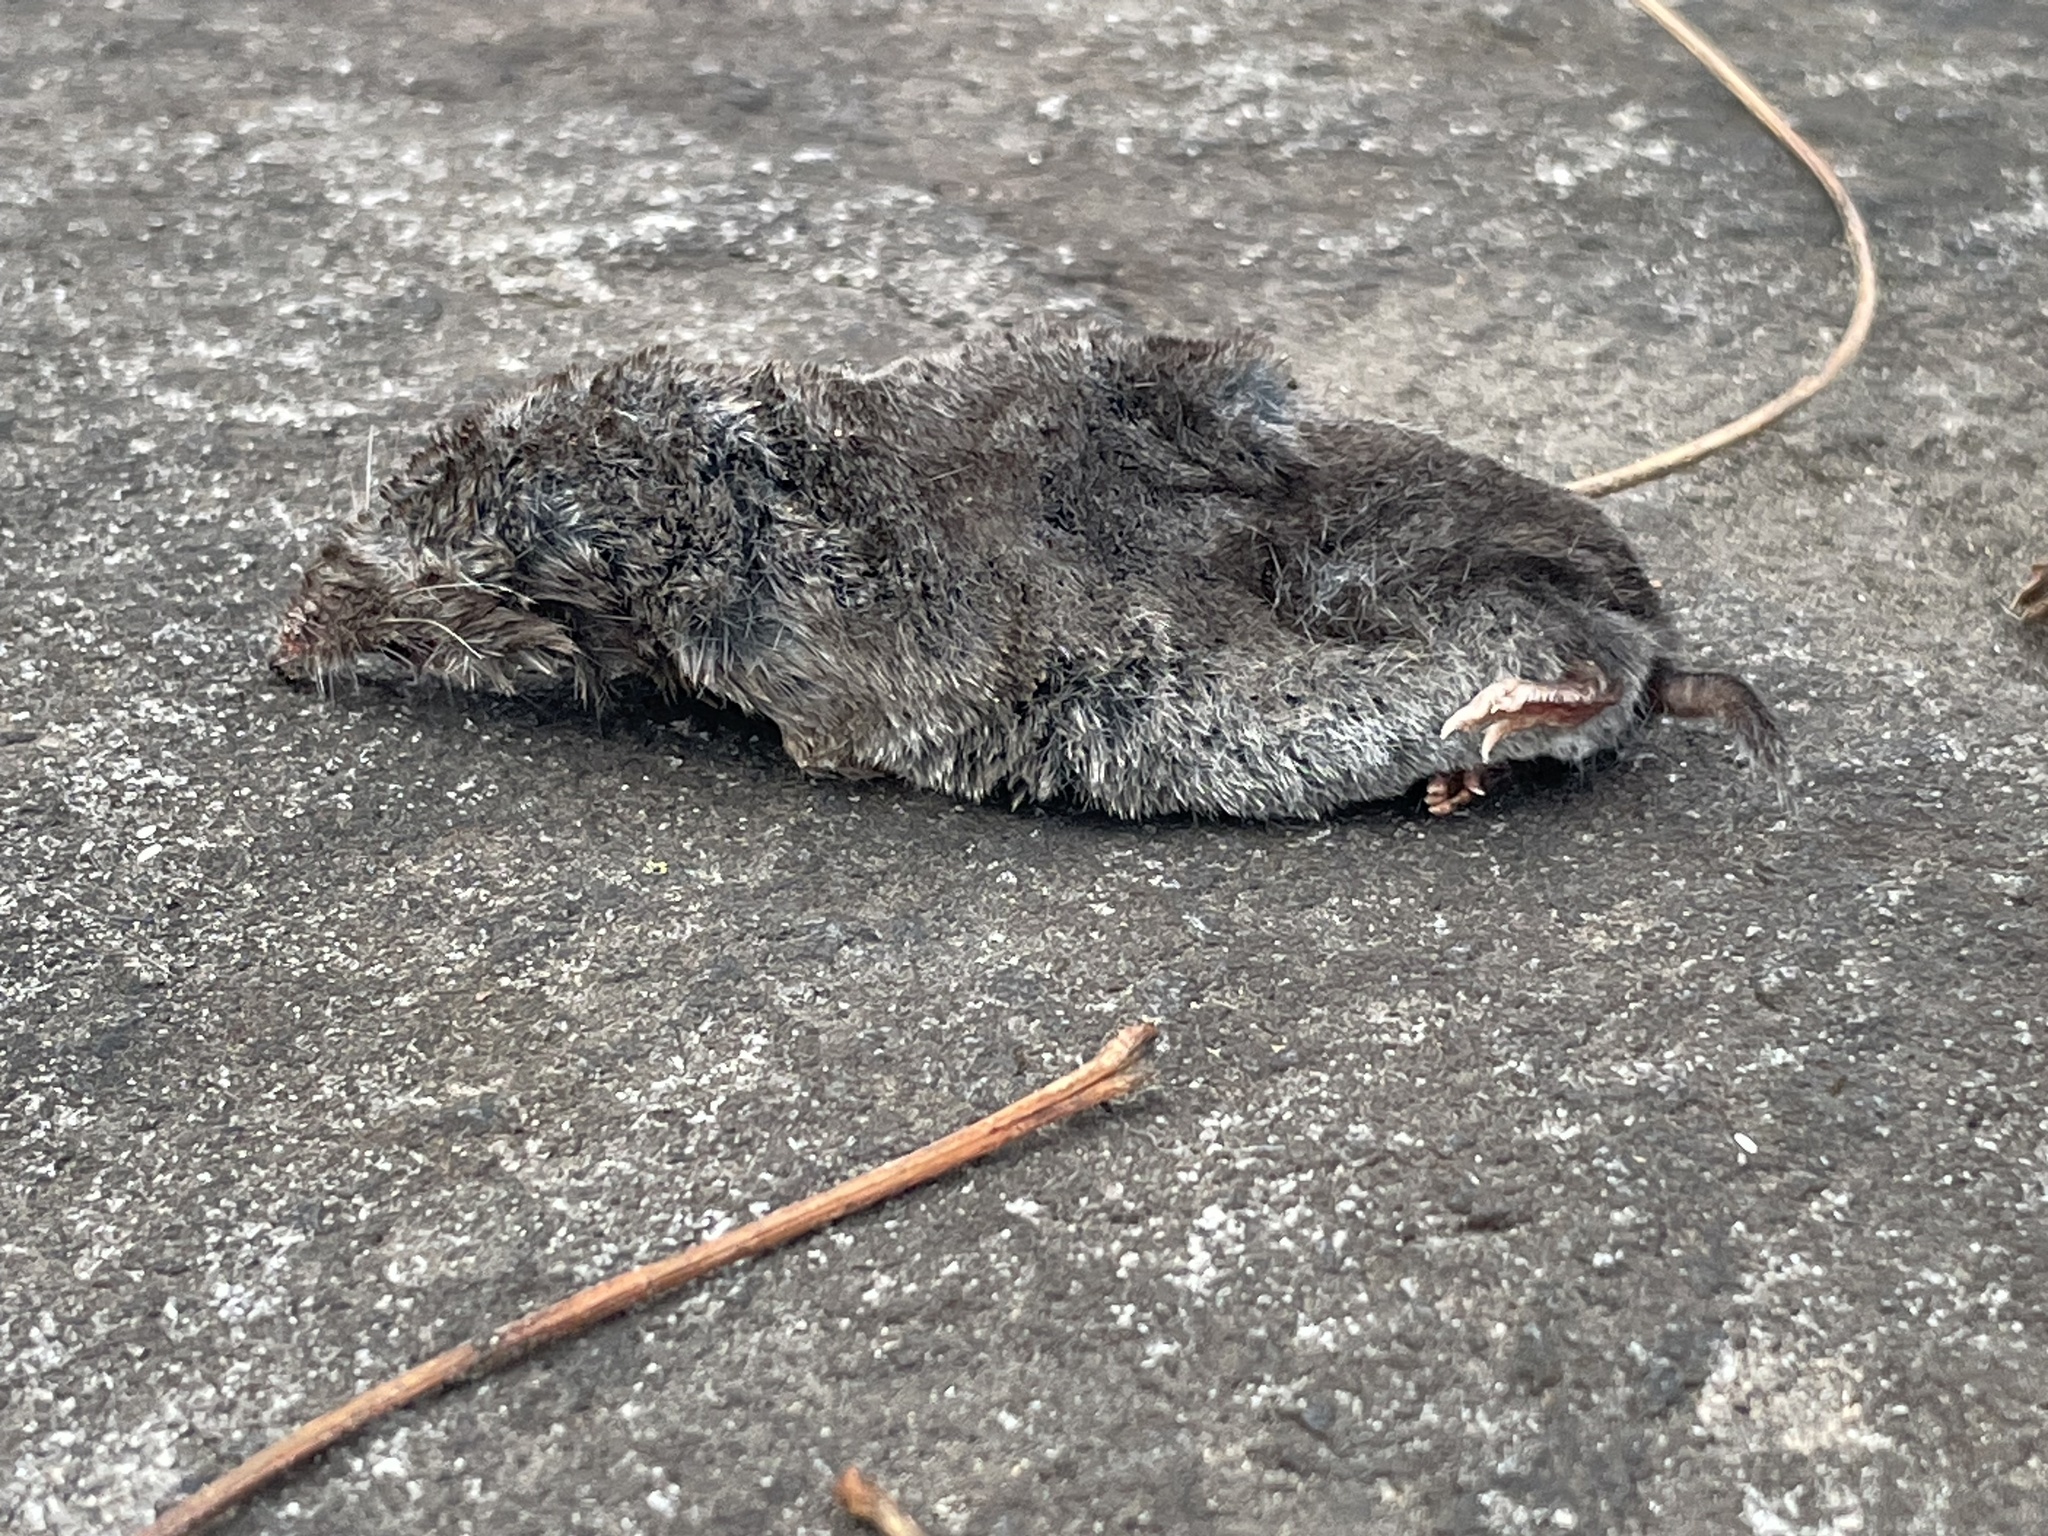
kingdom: Animalia
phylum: Chordata
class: Mammalia
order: Soricomorpha
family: Soricidae
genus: Blarina
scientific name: Blarina brevicauda
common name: Northern short-tailed shrew
